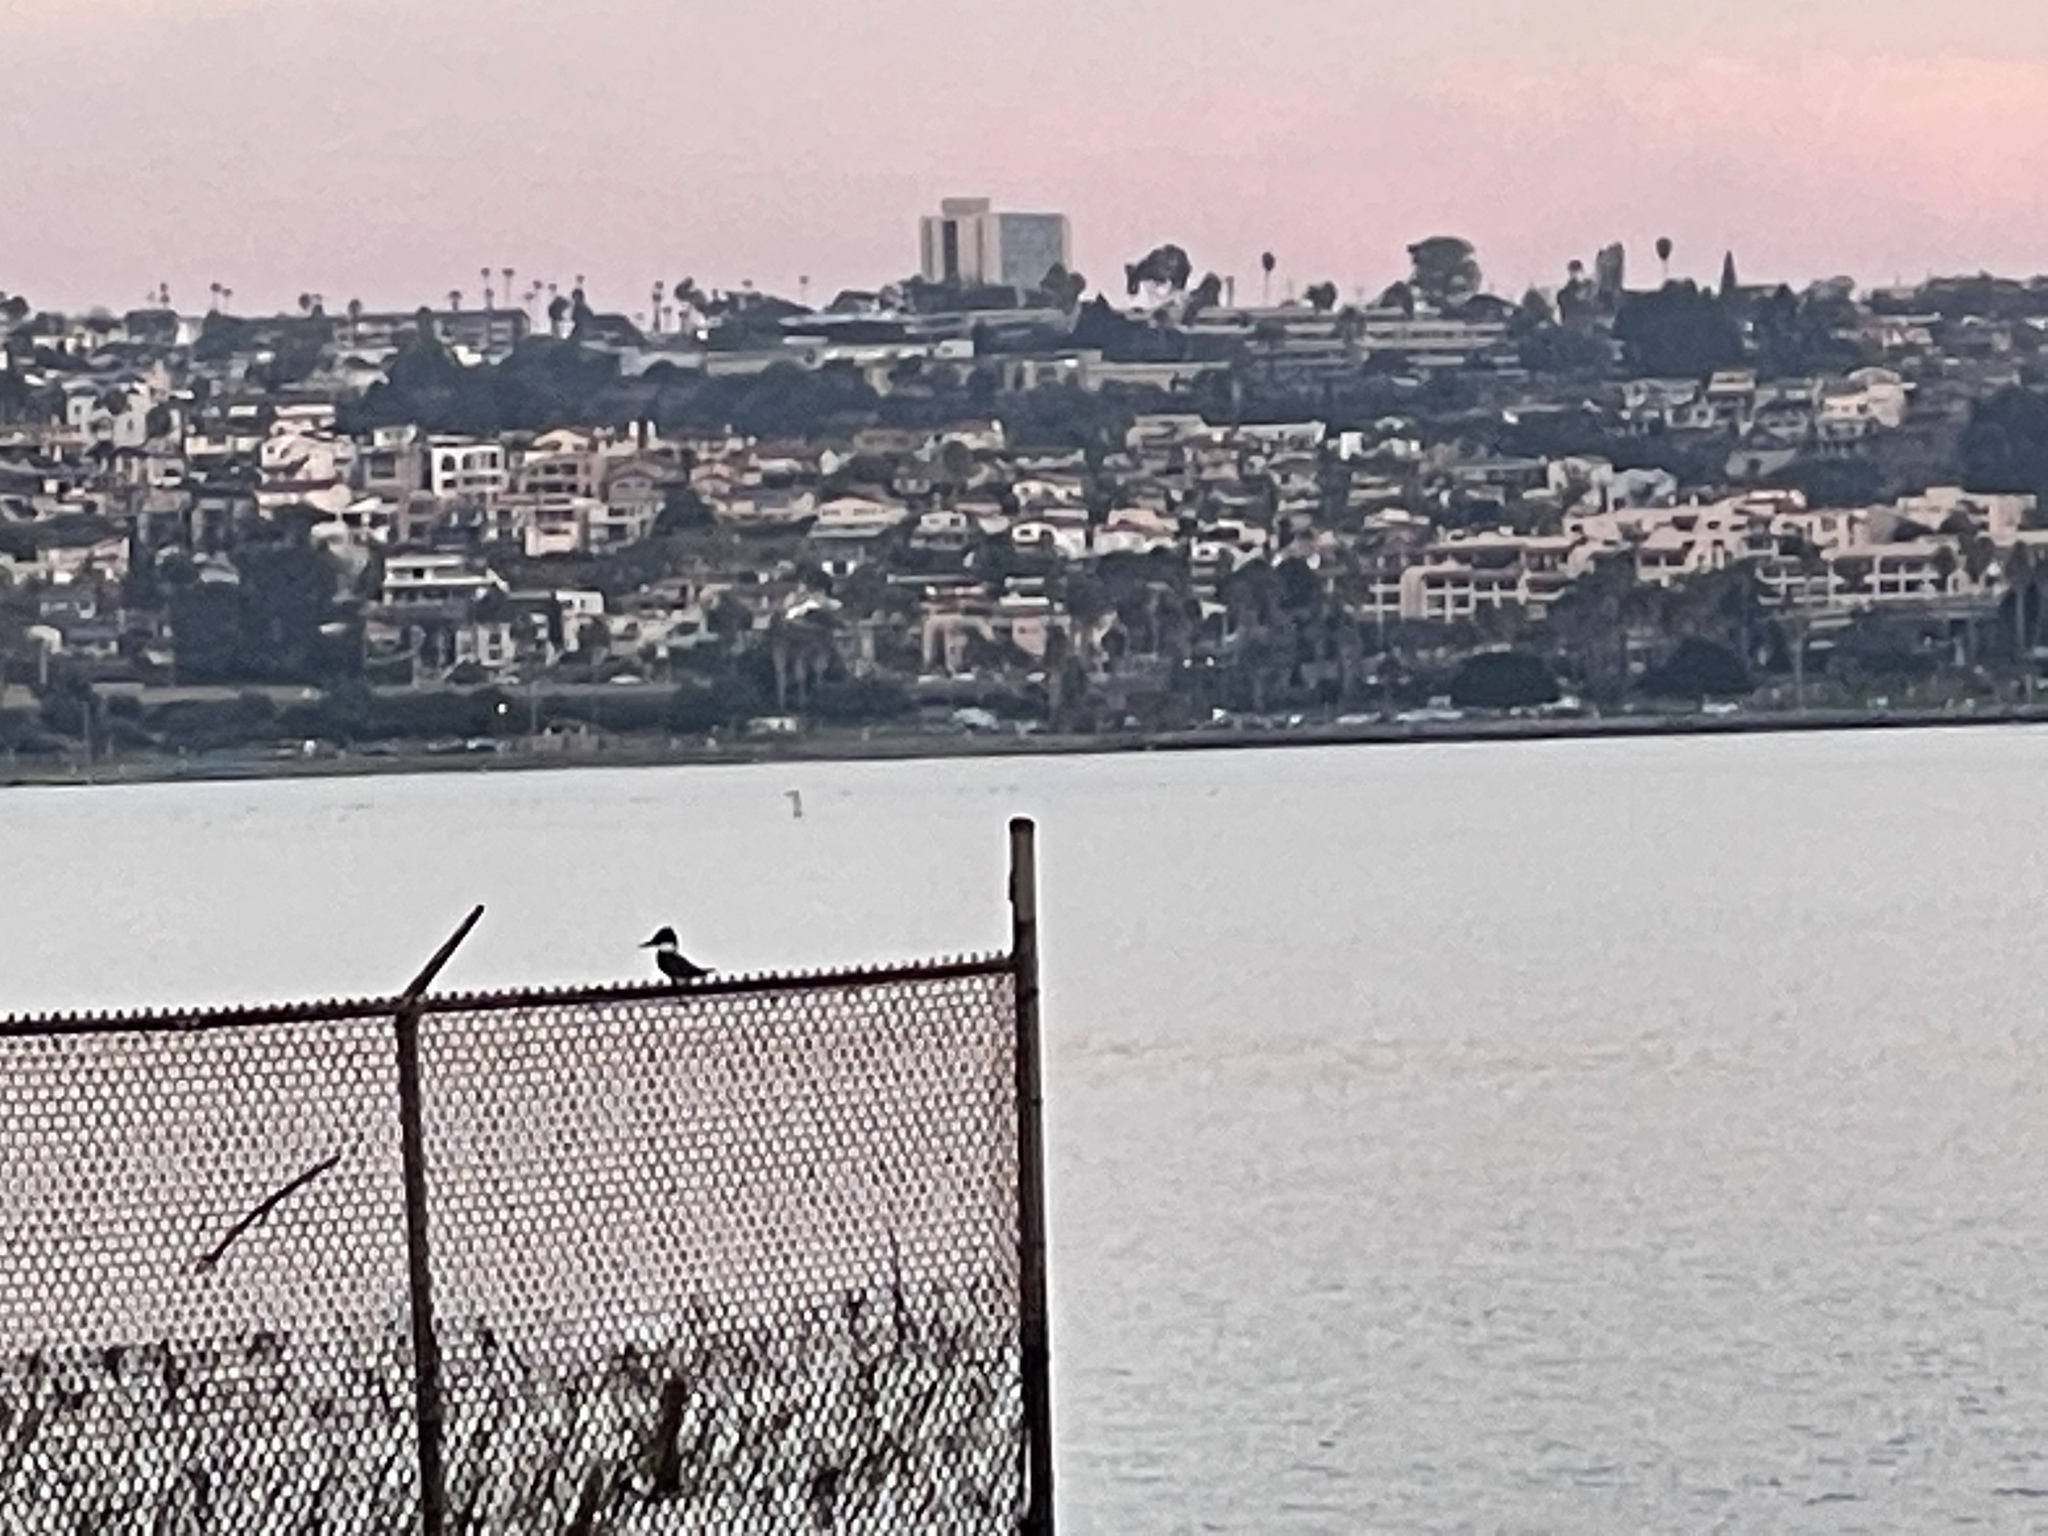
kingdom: Animalia
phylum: Chordata
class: Aves
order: Coraciiformes
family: Alcedinidae
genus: Megaceryle
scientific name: Megaceryle alcyon
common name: Belted kingfisher
